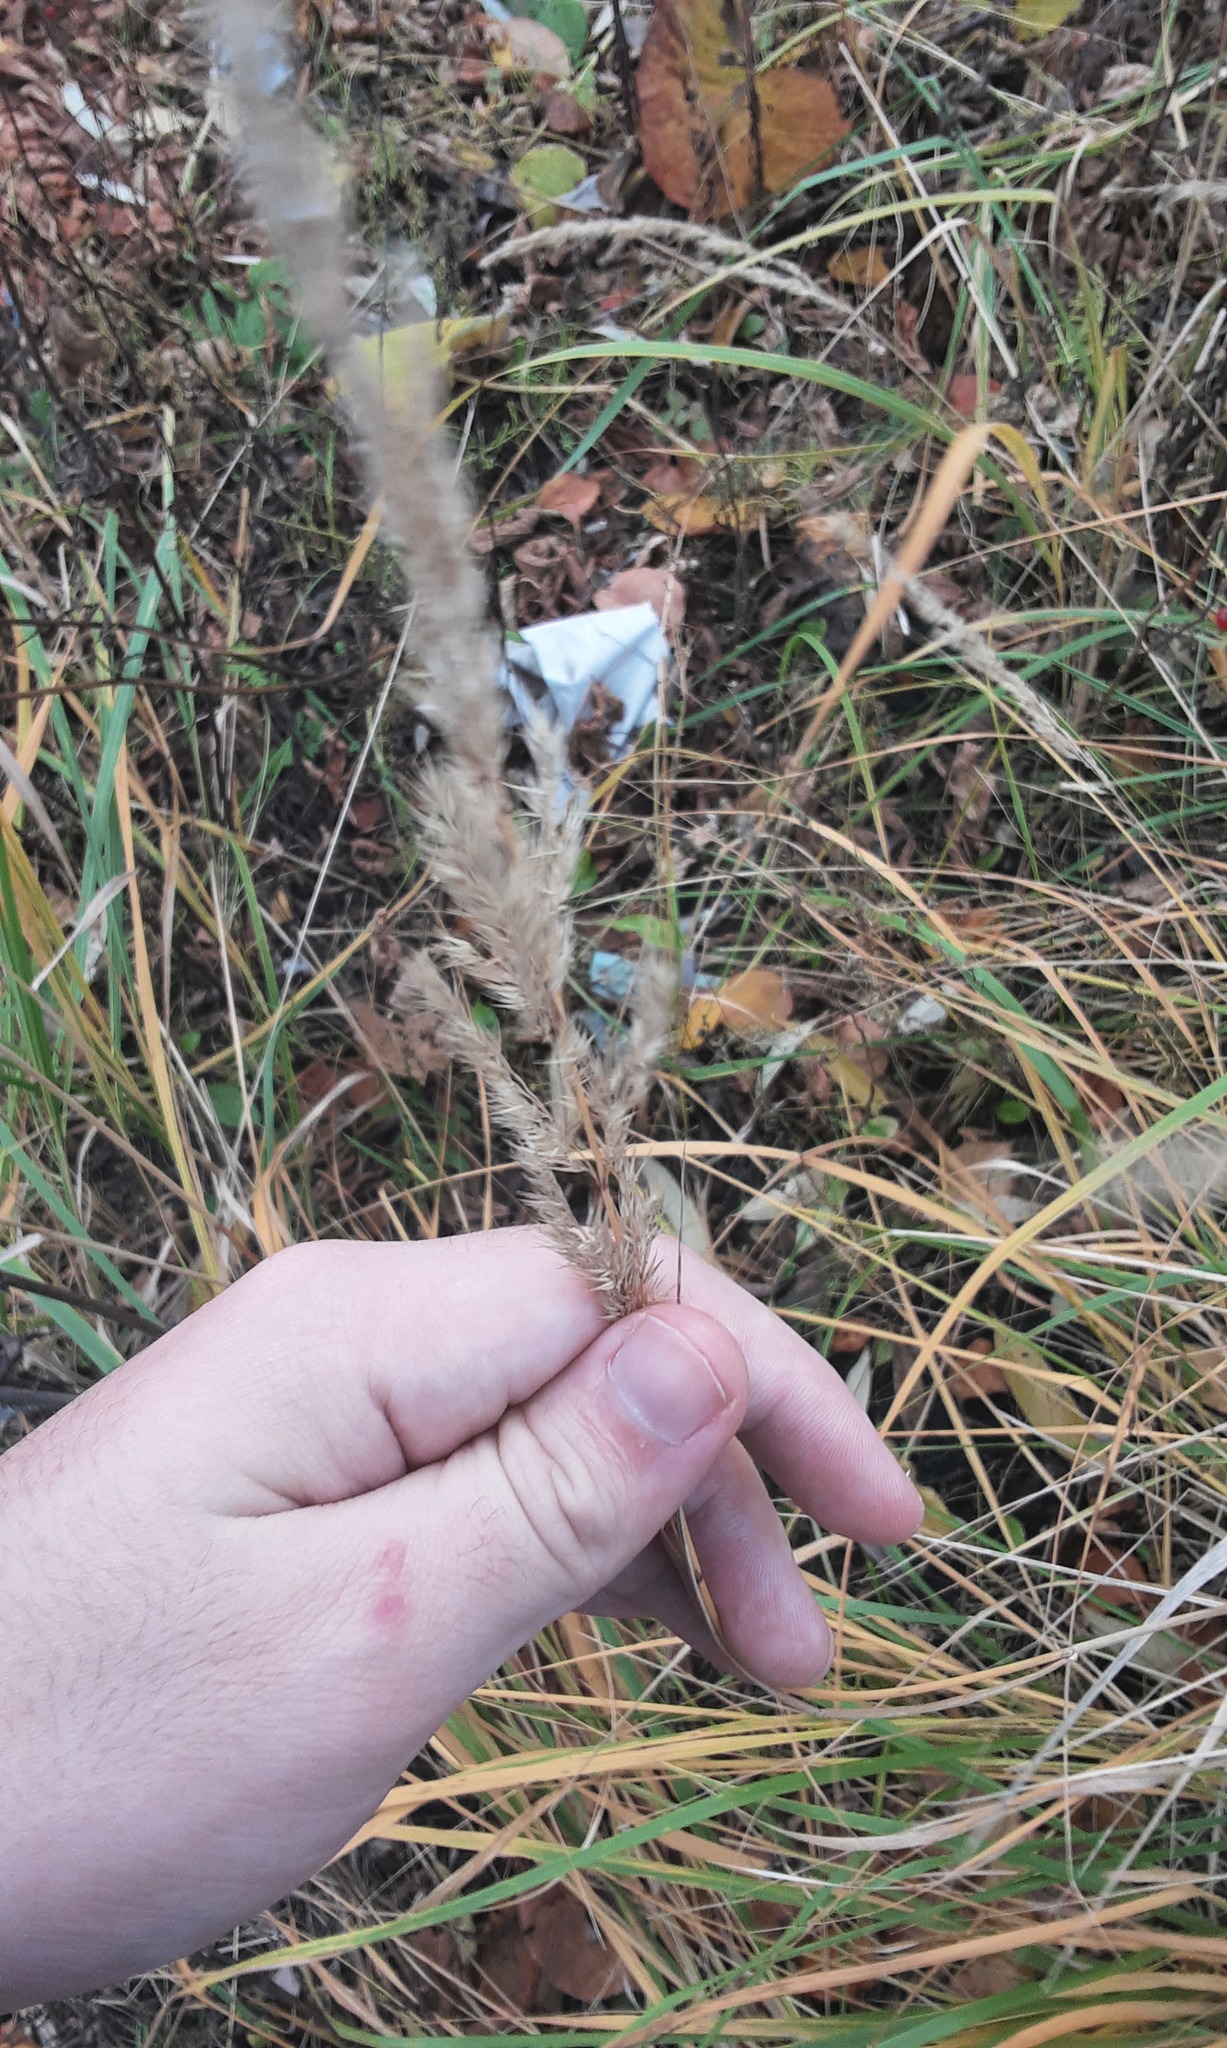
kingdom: Plantae
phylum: Tracheophyta
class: Liliopsida
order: Poales
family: Poaceae
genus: Calamagrostis
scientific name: Calamagrostis epigejos
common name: Wood small-reed
